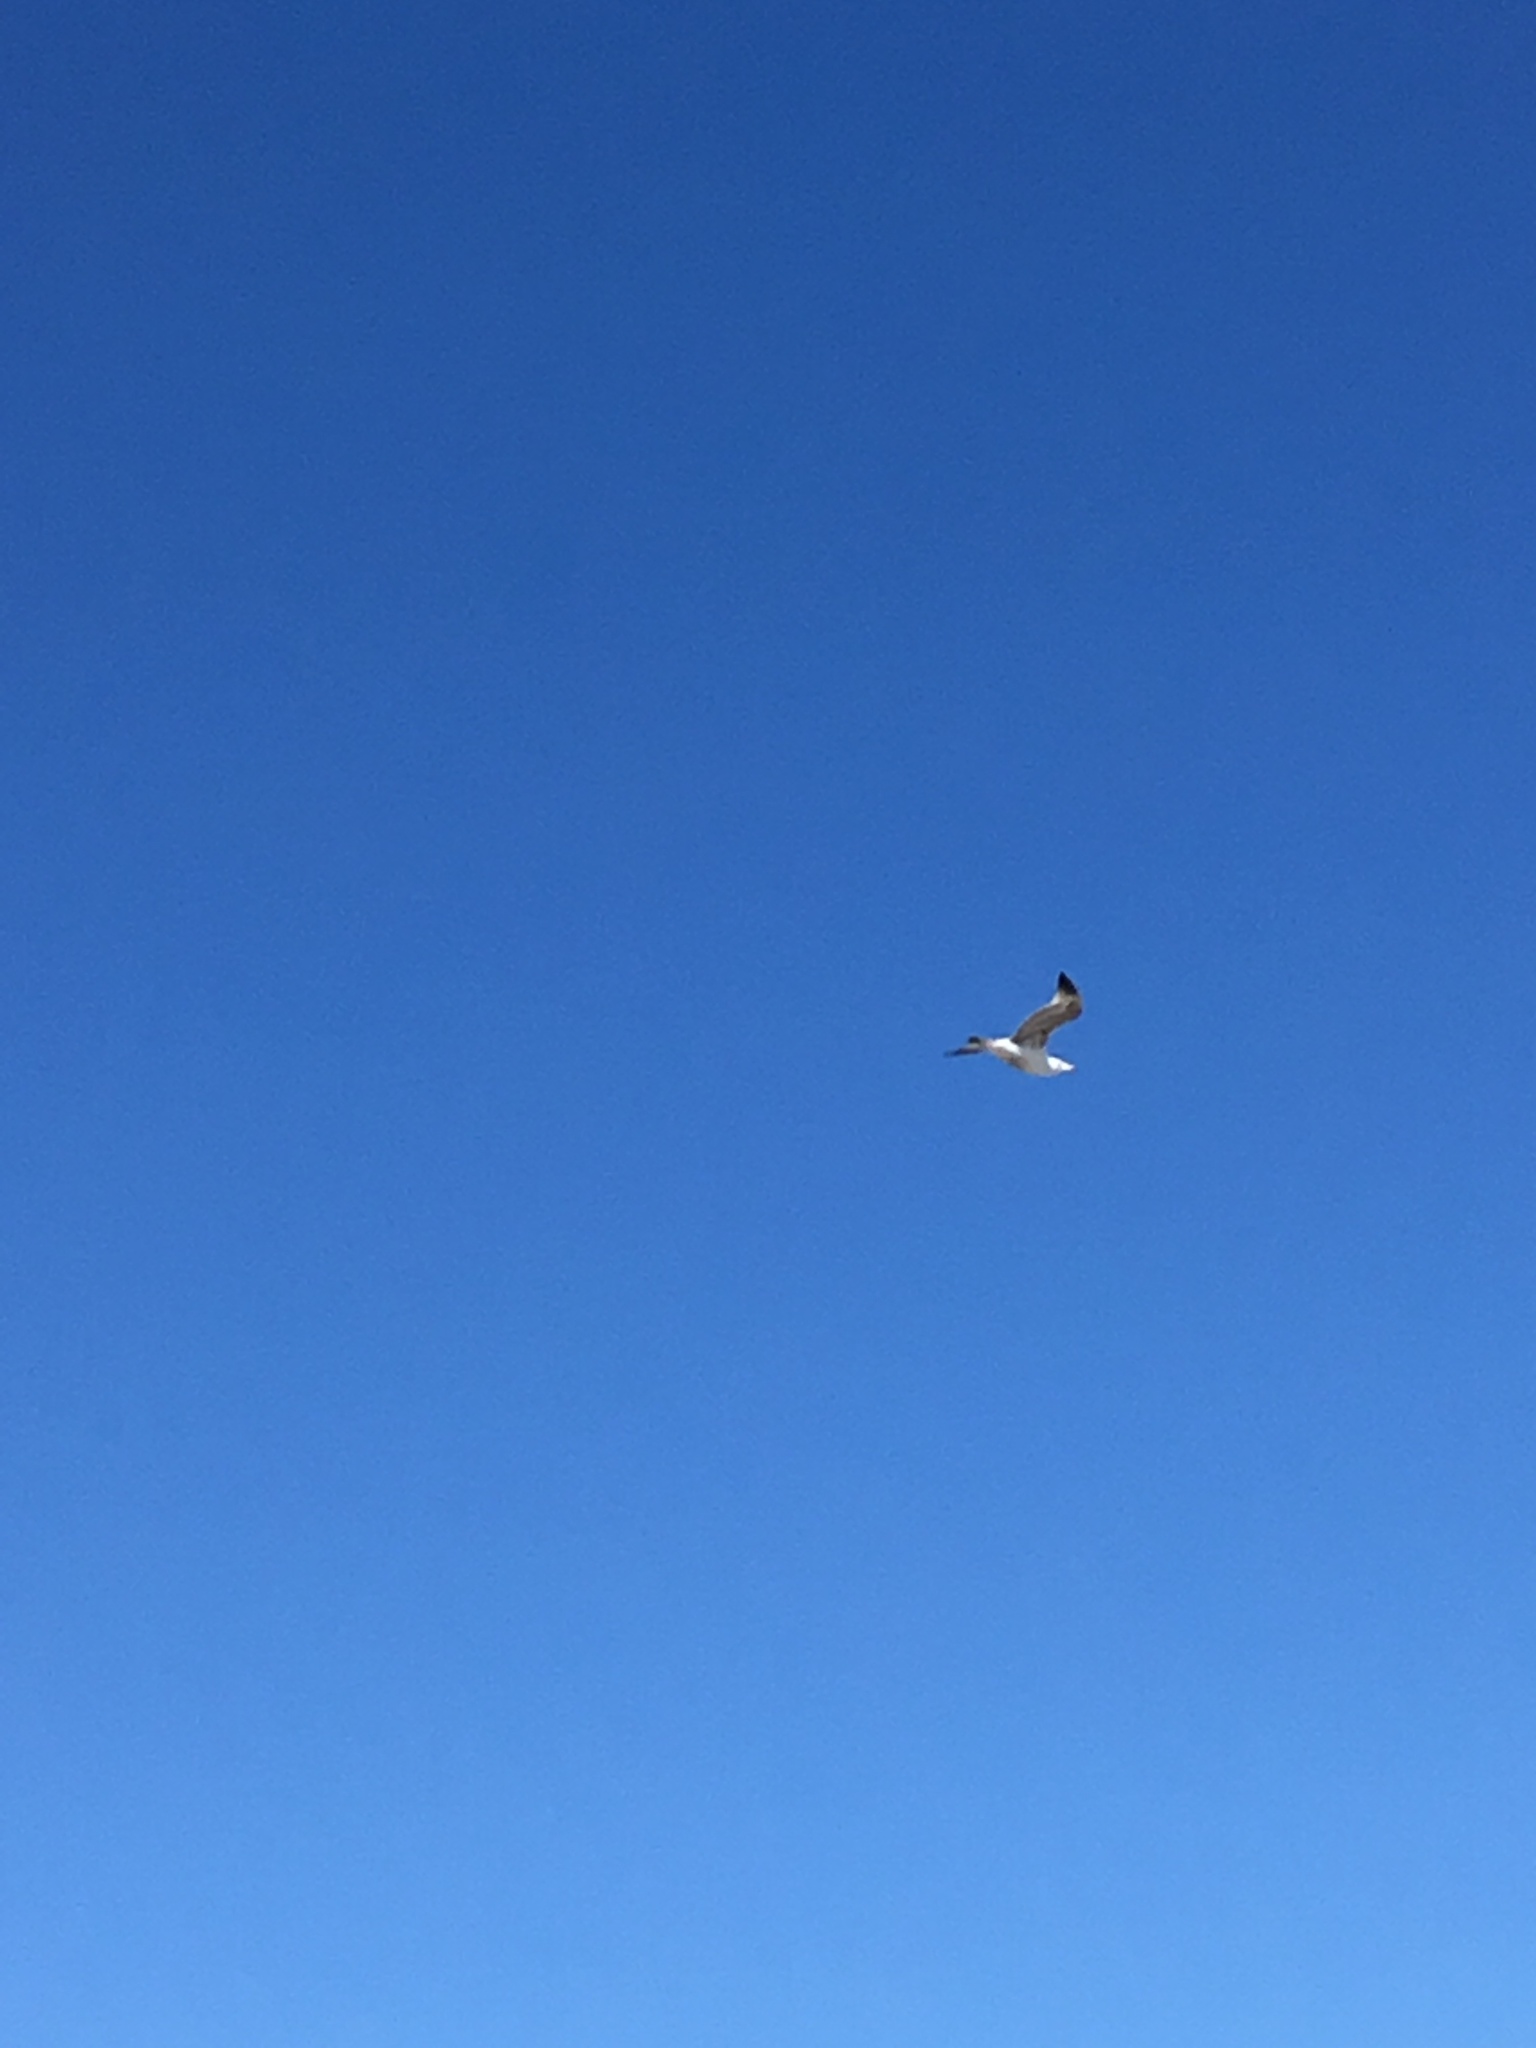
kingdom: Animalia
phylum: Chordata
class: Aves
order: Charadriiformes
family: Laridae
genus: Larus
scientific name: Larus argentatus
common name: Herring gull
